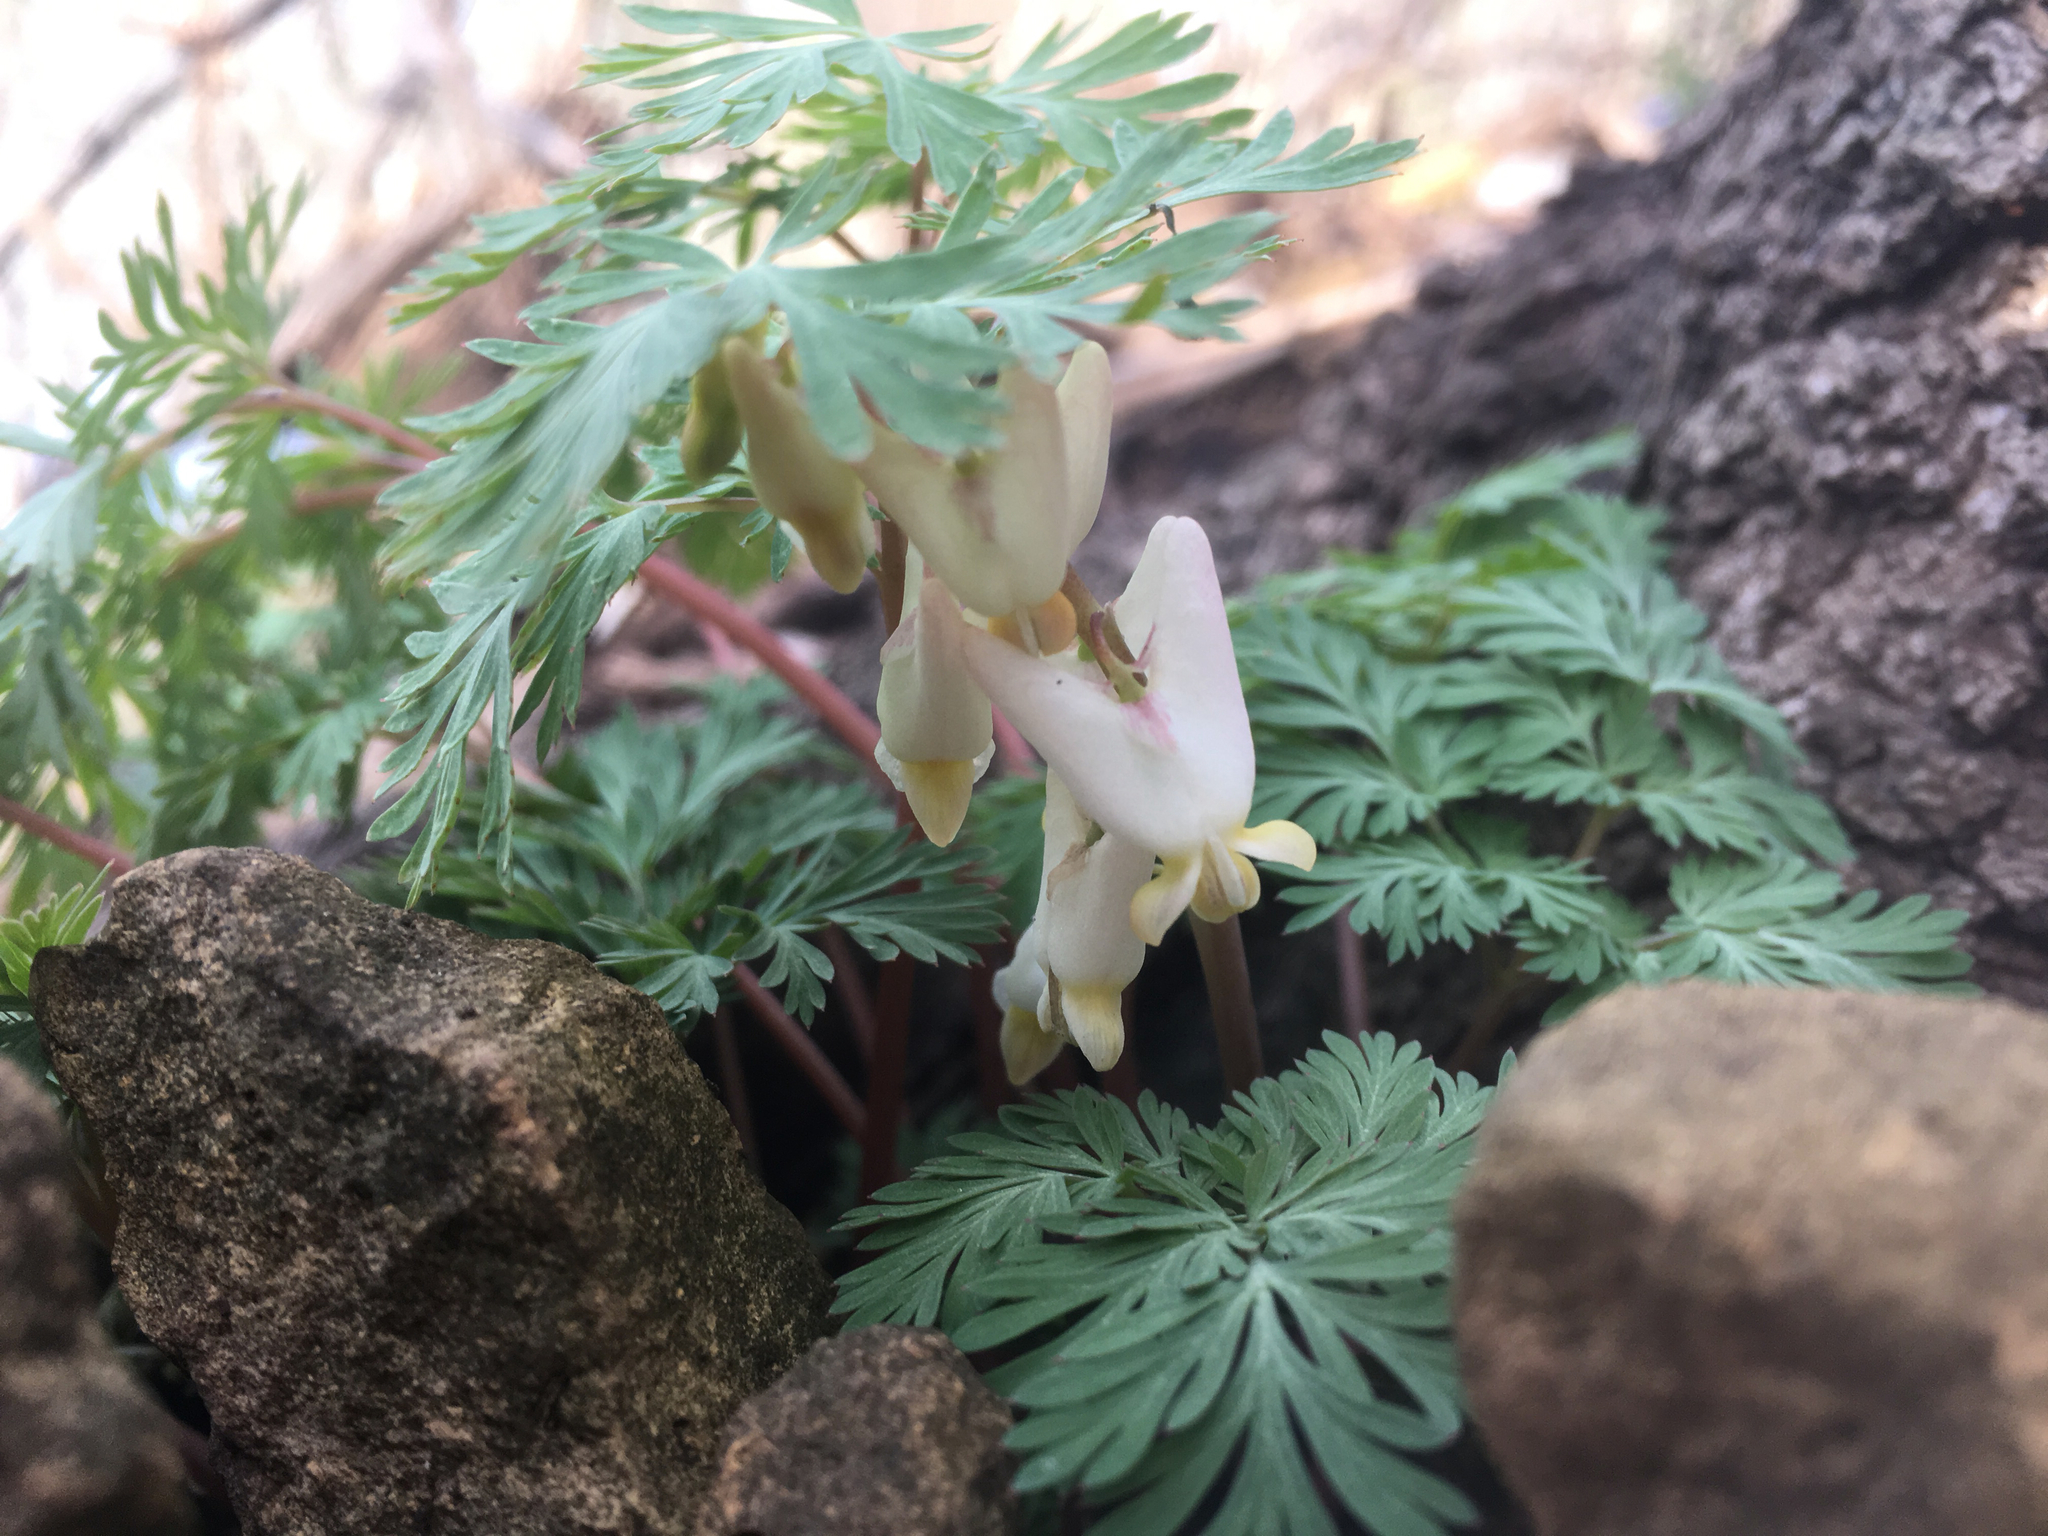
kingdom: Plantae
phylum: Tracheophyta
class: Magnoliopsida
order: Ranunculales
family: Papaveraceae
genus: Dicentra
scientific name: Dicentra cucullaria
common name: Dutchman's breeches
